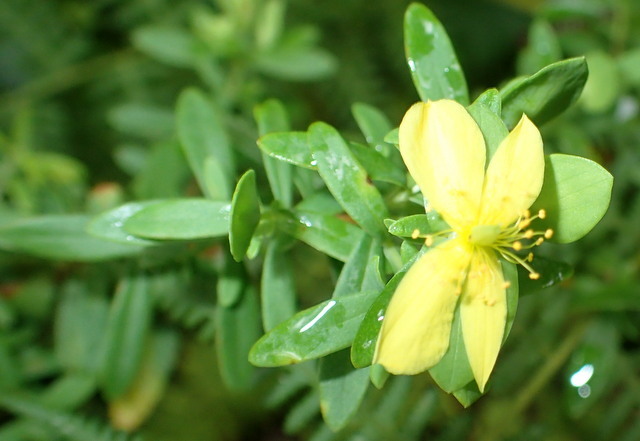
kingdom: Plantae
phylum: Tracheophyta
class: Magnoliopsida
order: Malpighiales
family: Hypericaceae
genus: Hypericum
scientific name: Hypericum hypericoides
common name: St. andrew's cross
